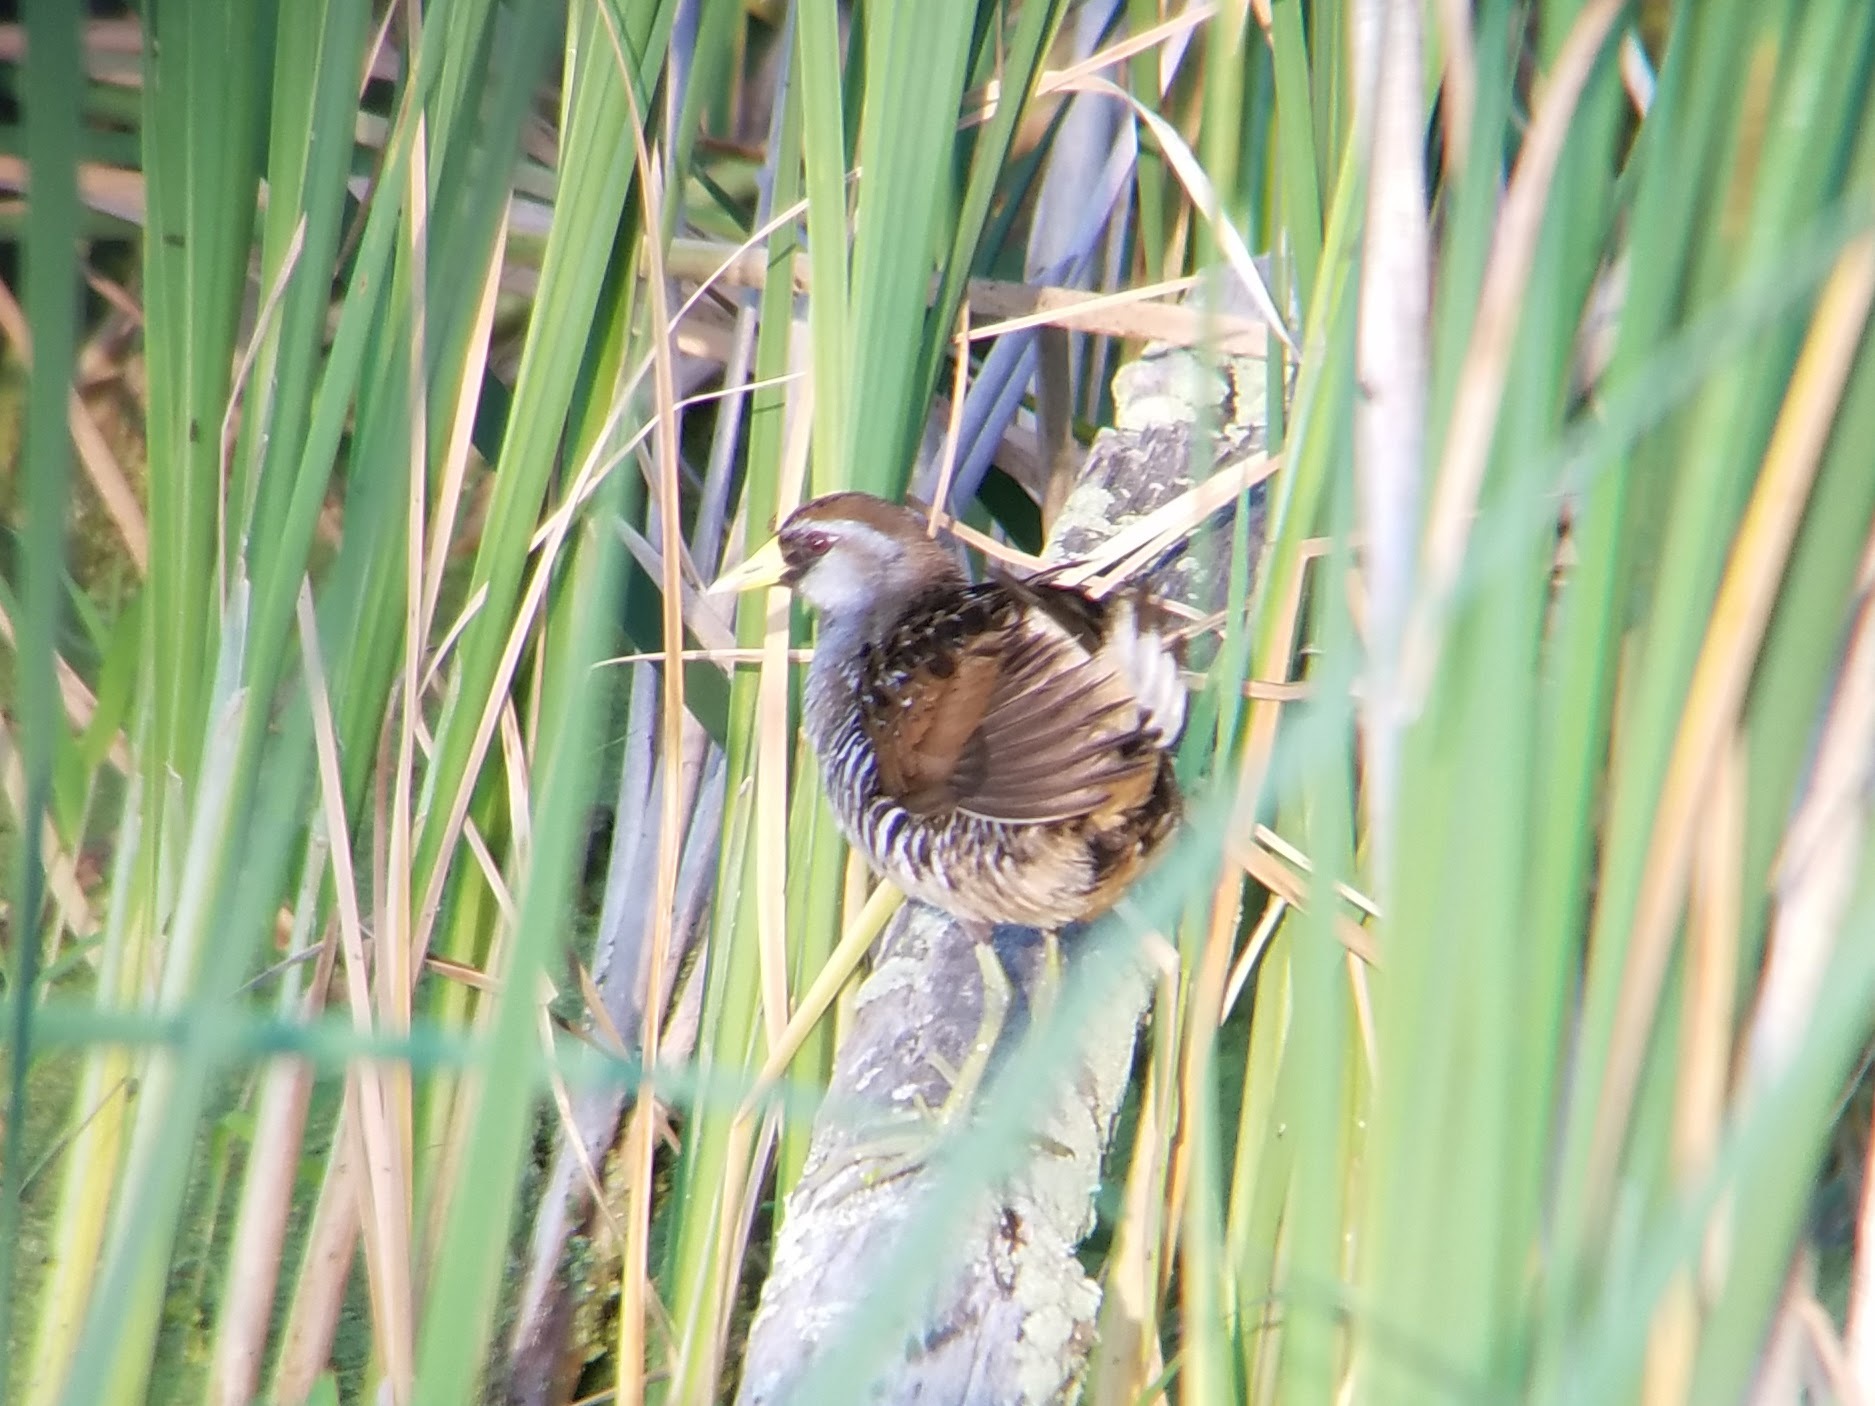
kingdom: Animalia
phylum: Chordata
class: Aves
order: Gruiformes
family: Rallidae
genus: Porzana
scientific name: Porzana carolina
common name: Sora
